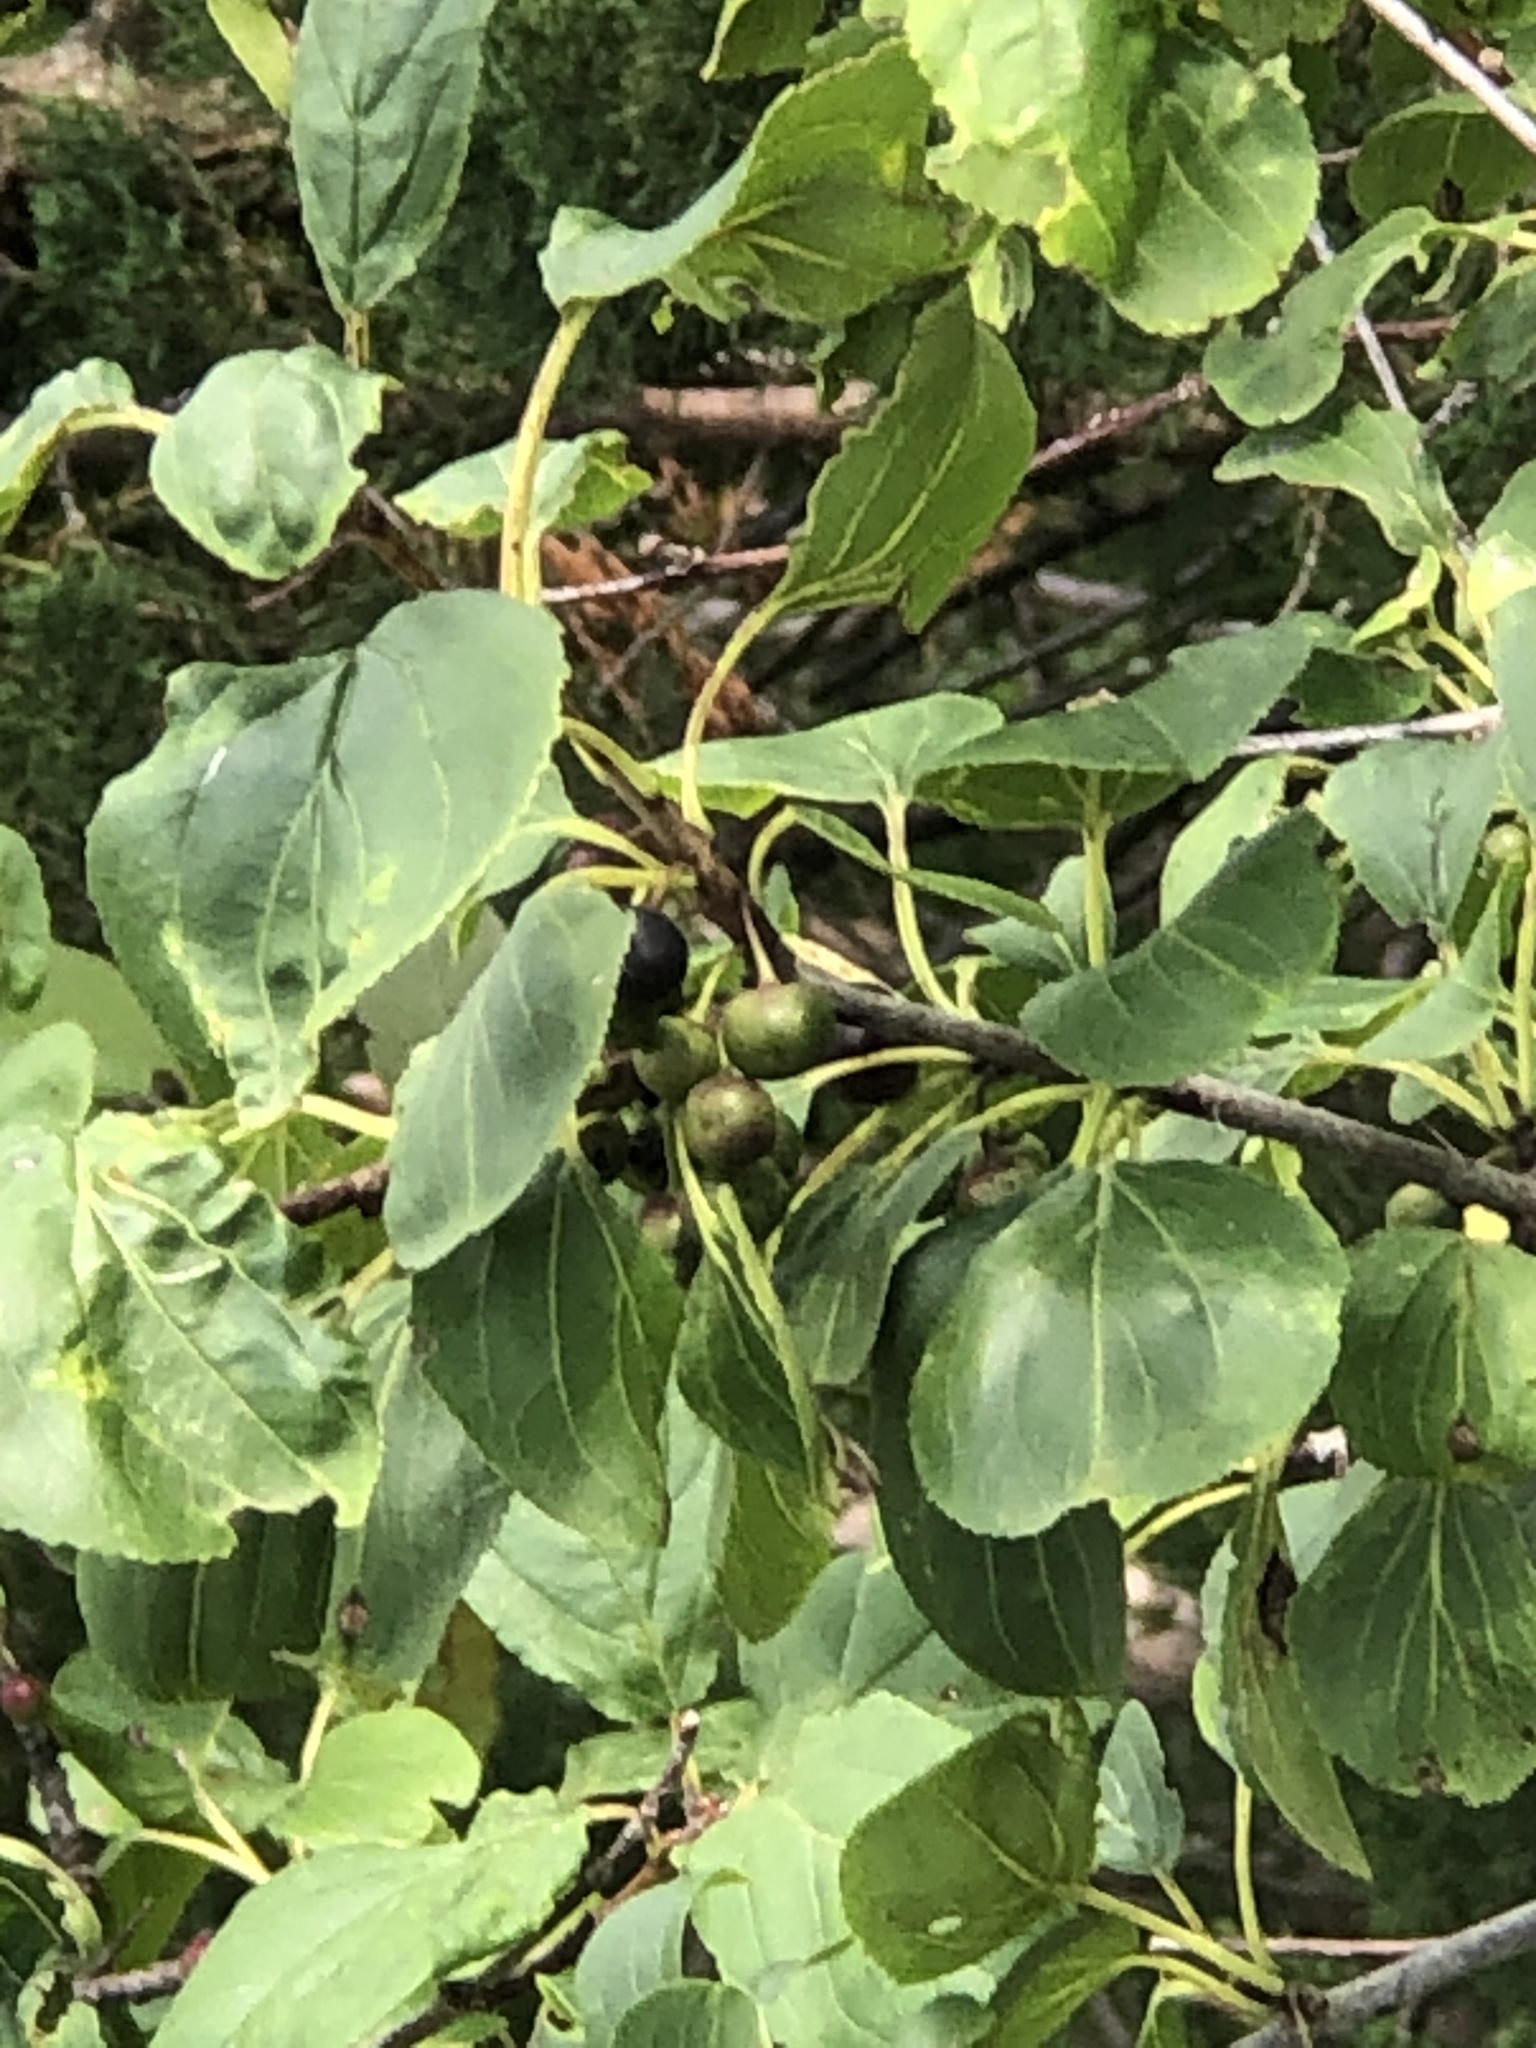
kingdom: Plantae
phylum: Tracheophyta
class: Magnoliopsida
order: Rosales
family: Rhamnaceae
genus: Rhamnus
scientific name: Rhamnus cathartica
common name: Common buckthorn
